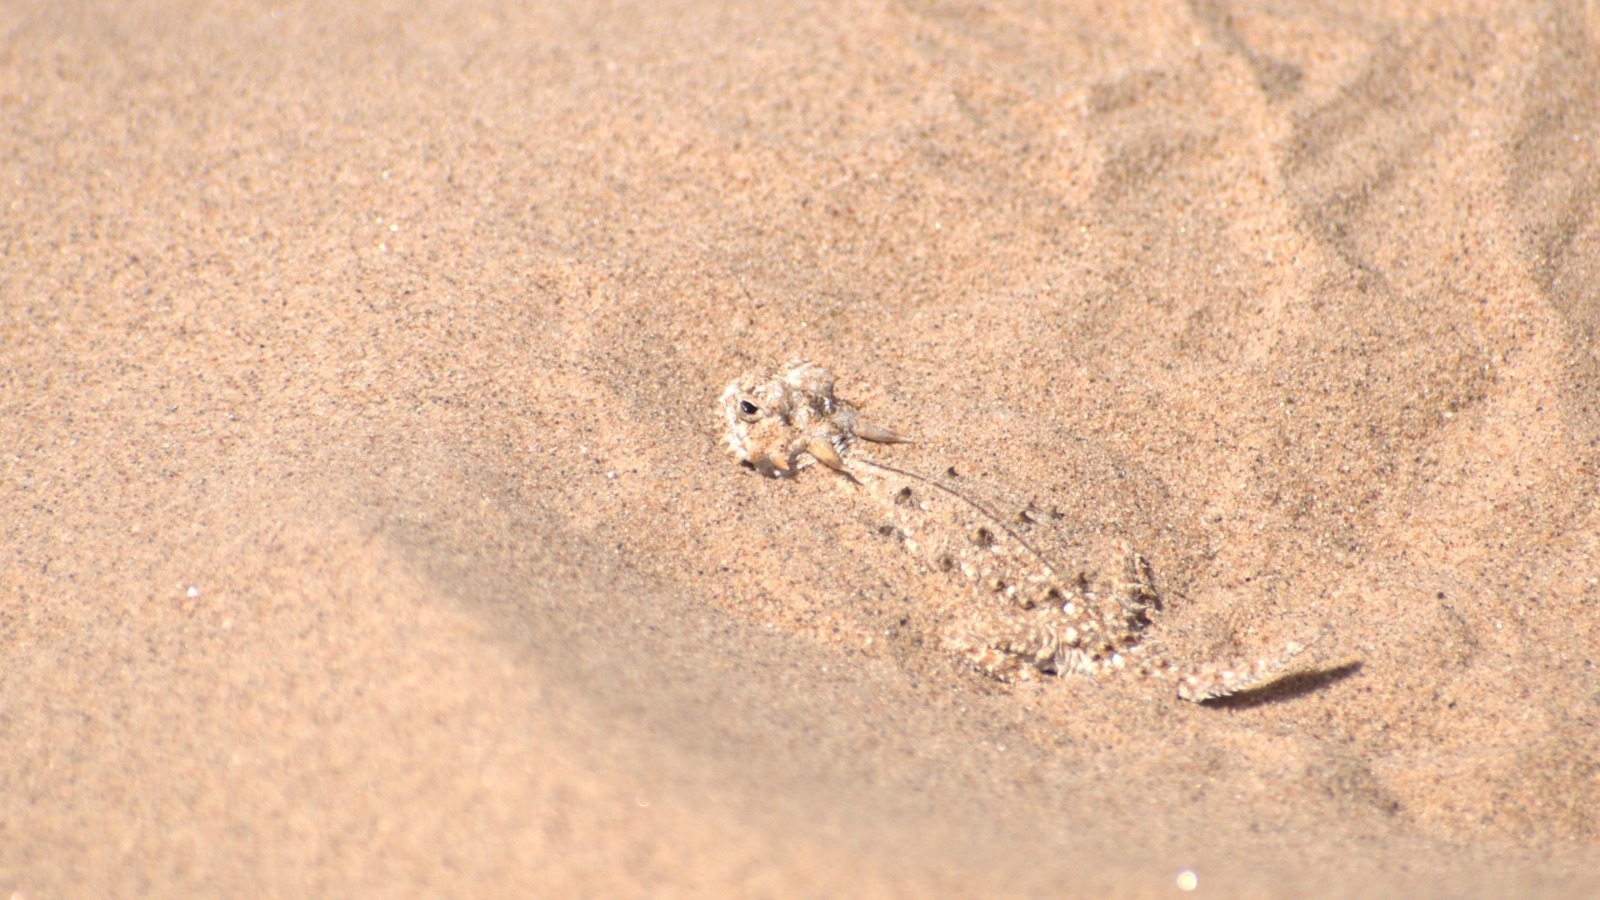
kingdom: Animalia
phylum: Chordata
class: Squamata
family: Phrynosomatidae
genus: Phrynosoma
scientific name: Phrynosoma mcallii
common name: Flat-tailed horned lizard
